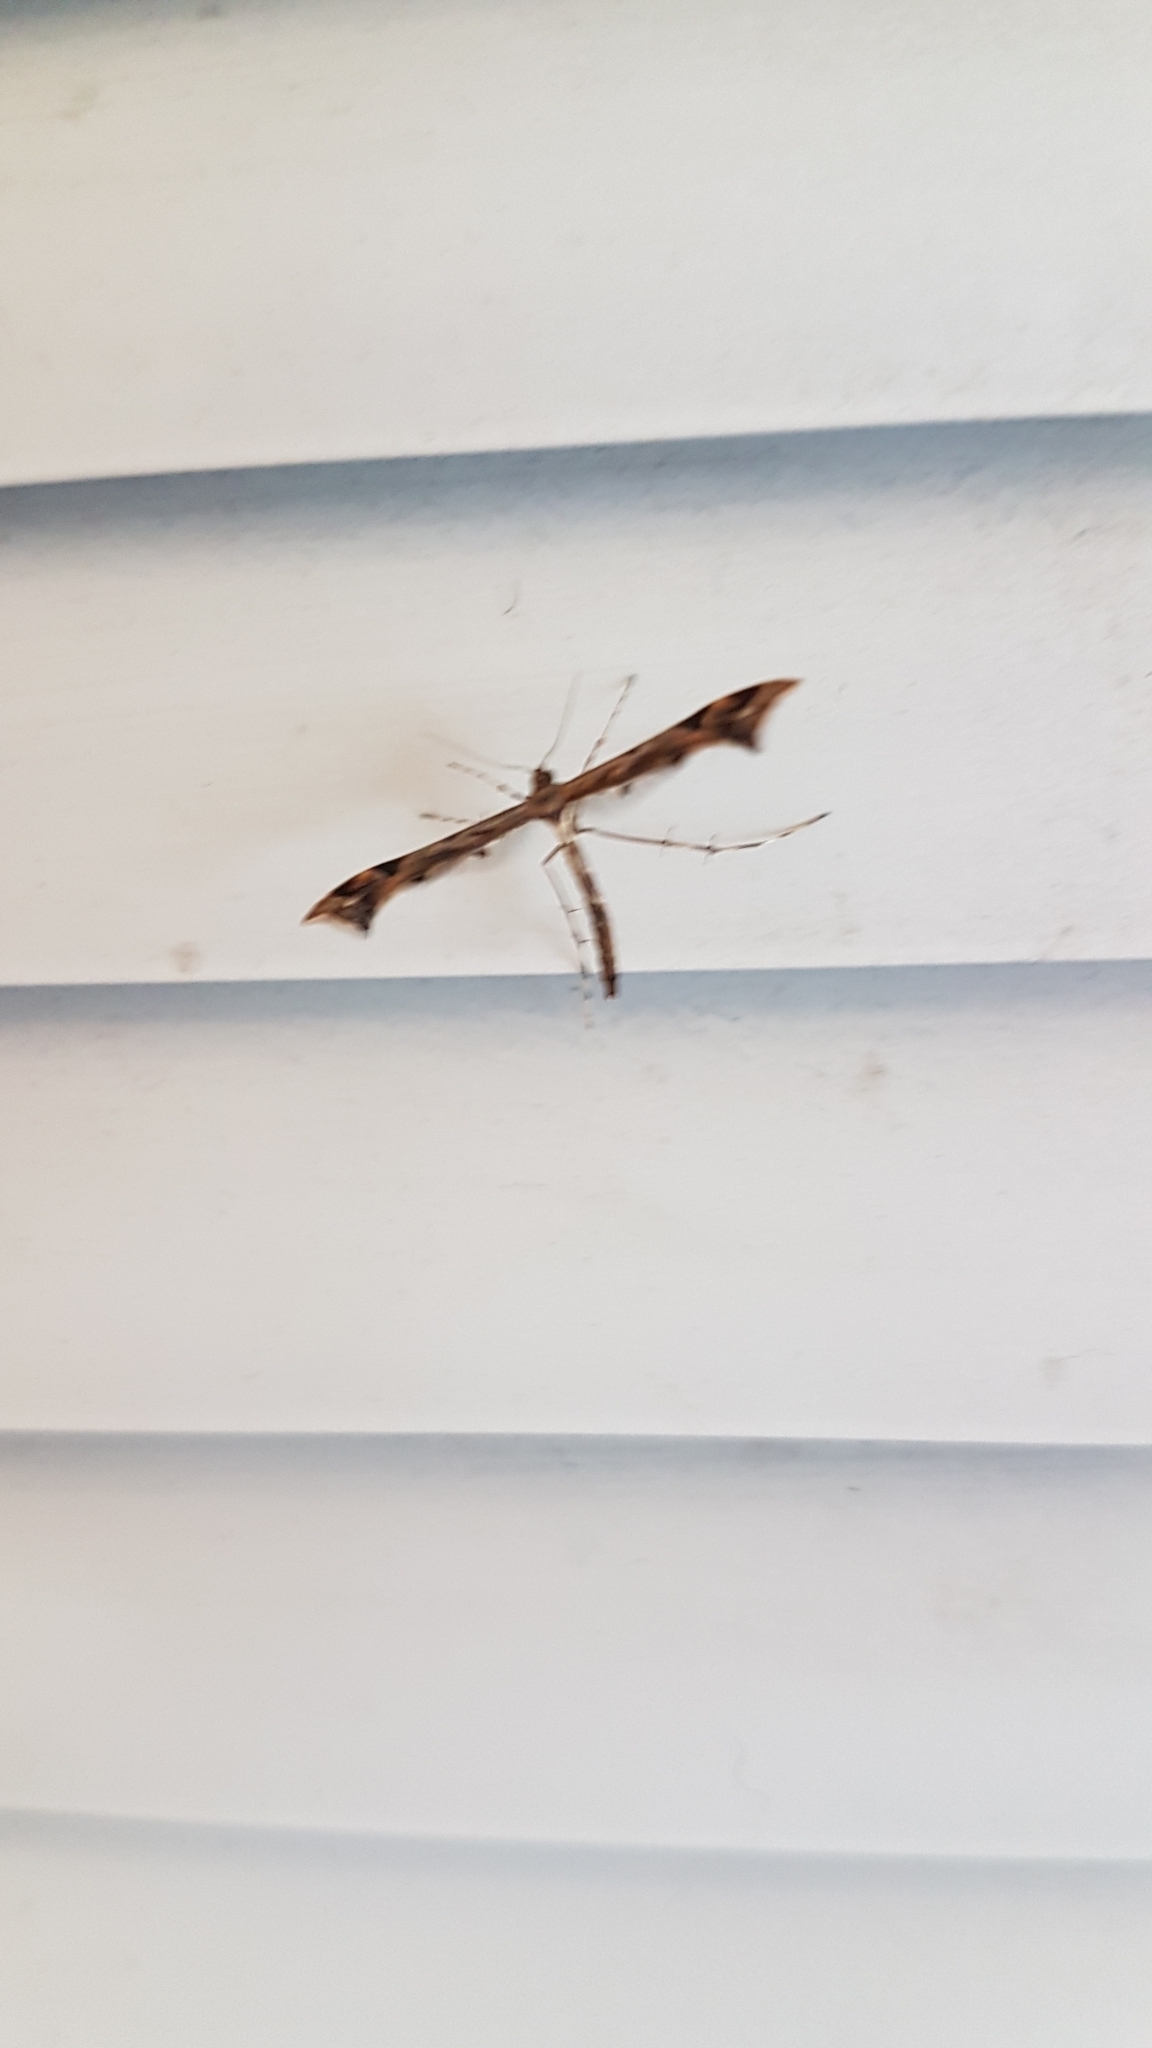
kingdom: Animalia
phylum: Arthropoda
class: Insecta
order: Lepidoptera
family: Pterophoridae
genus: Amblyptilia
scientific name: Amblyptilia acanthadactyla
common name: Beautiful plume
